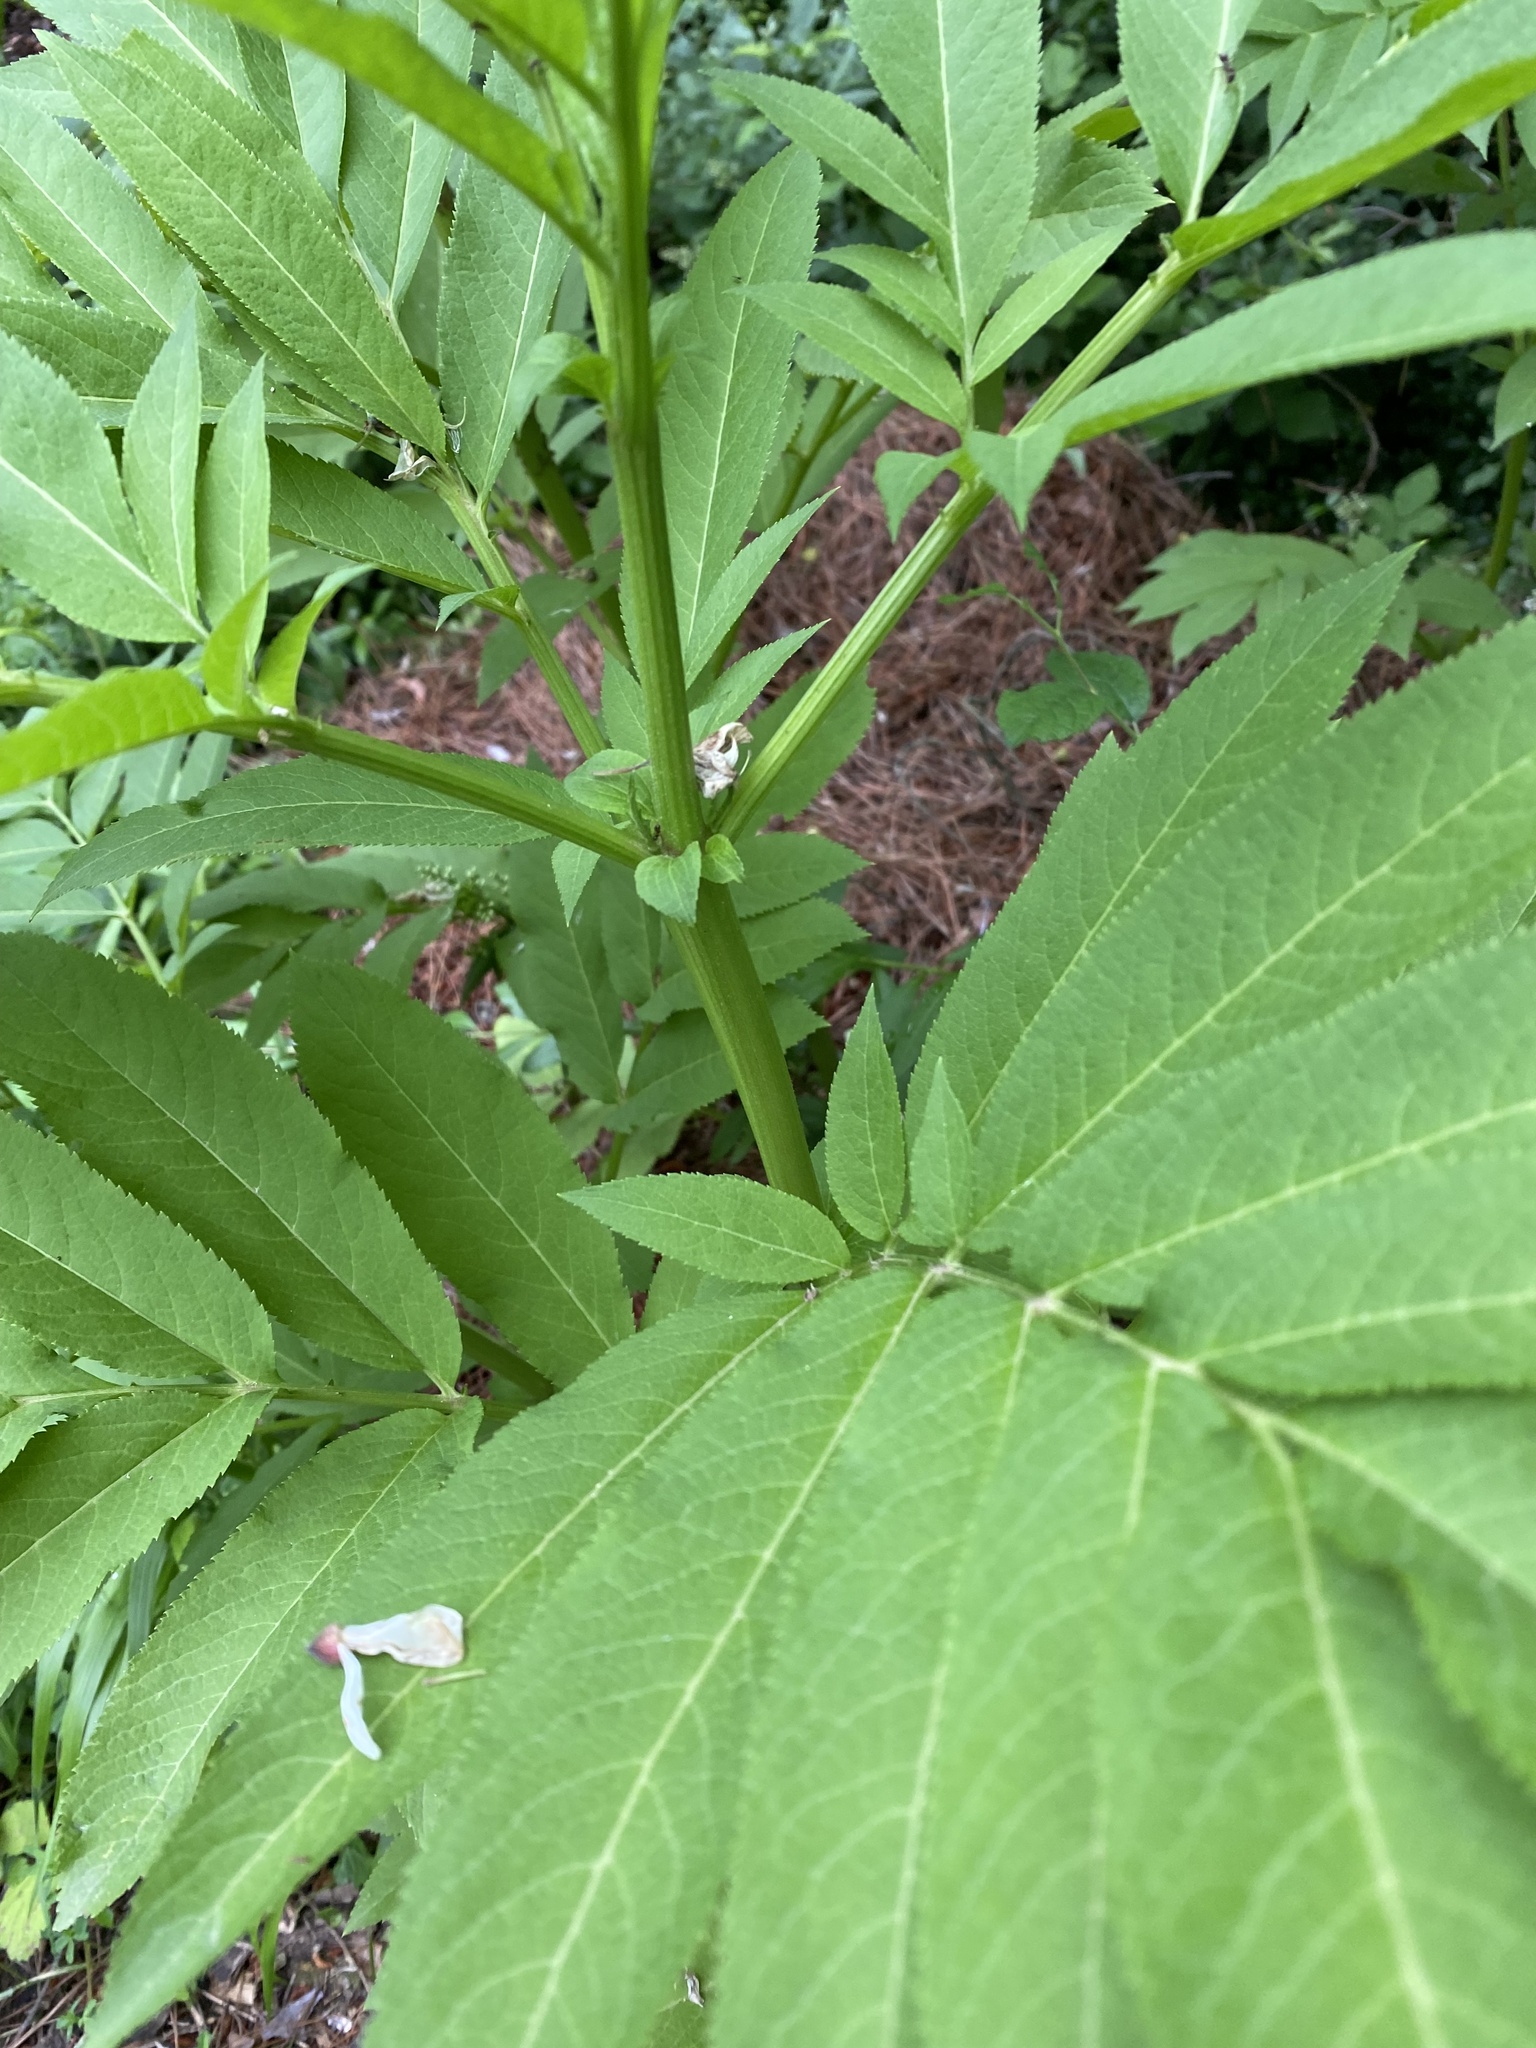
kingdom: Plantae
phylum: Tracheophyta
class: Magnoliopsida
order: Dipsacales
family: Viburnaceae
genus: Sambucus
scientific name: Sambucus ebulus
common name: Dwarf elder
